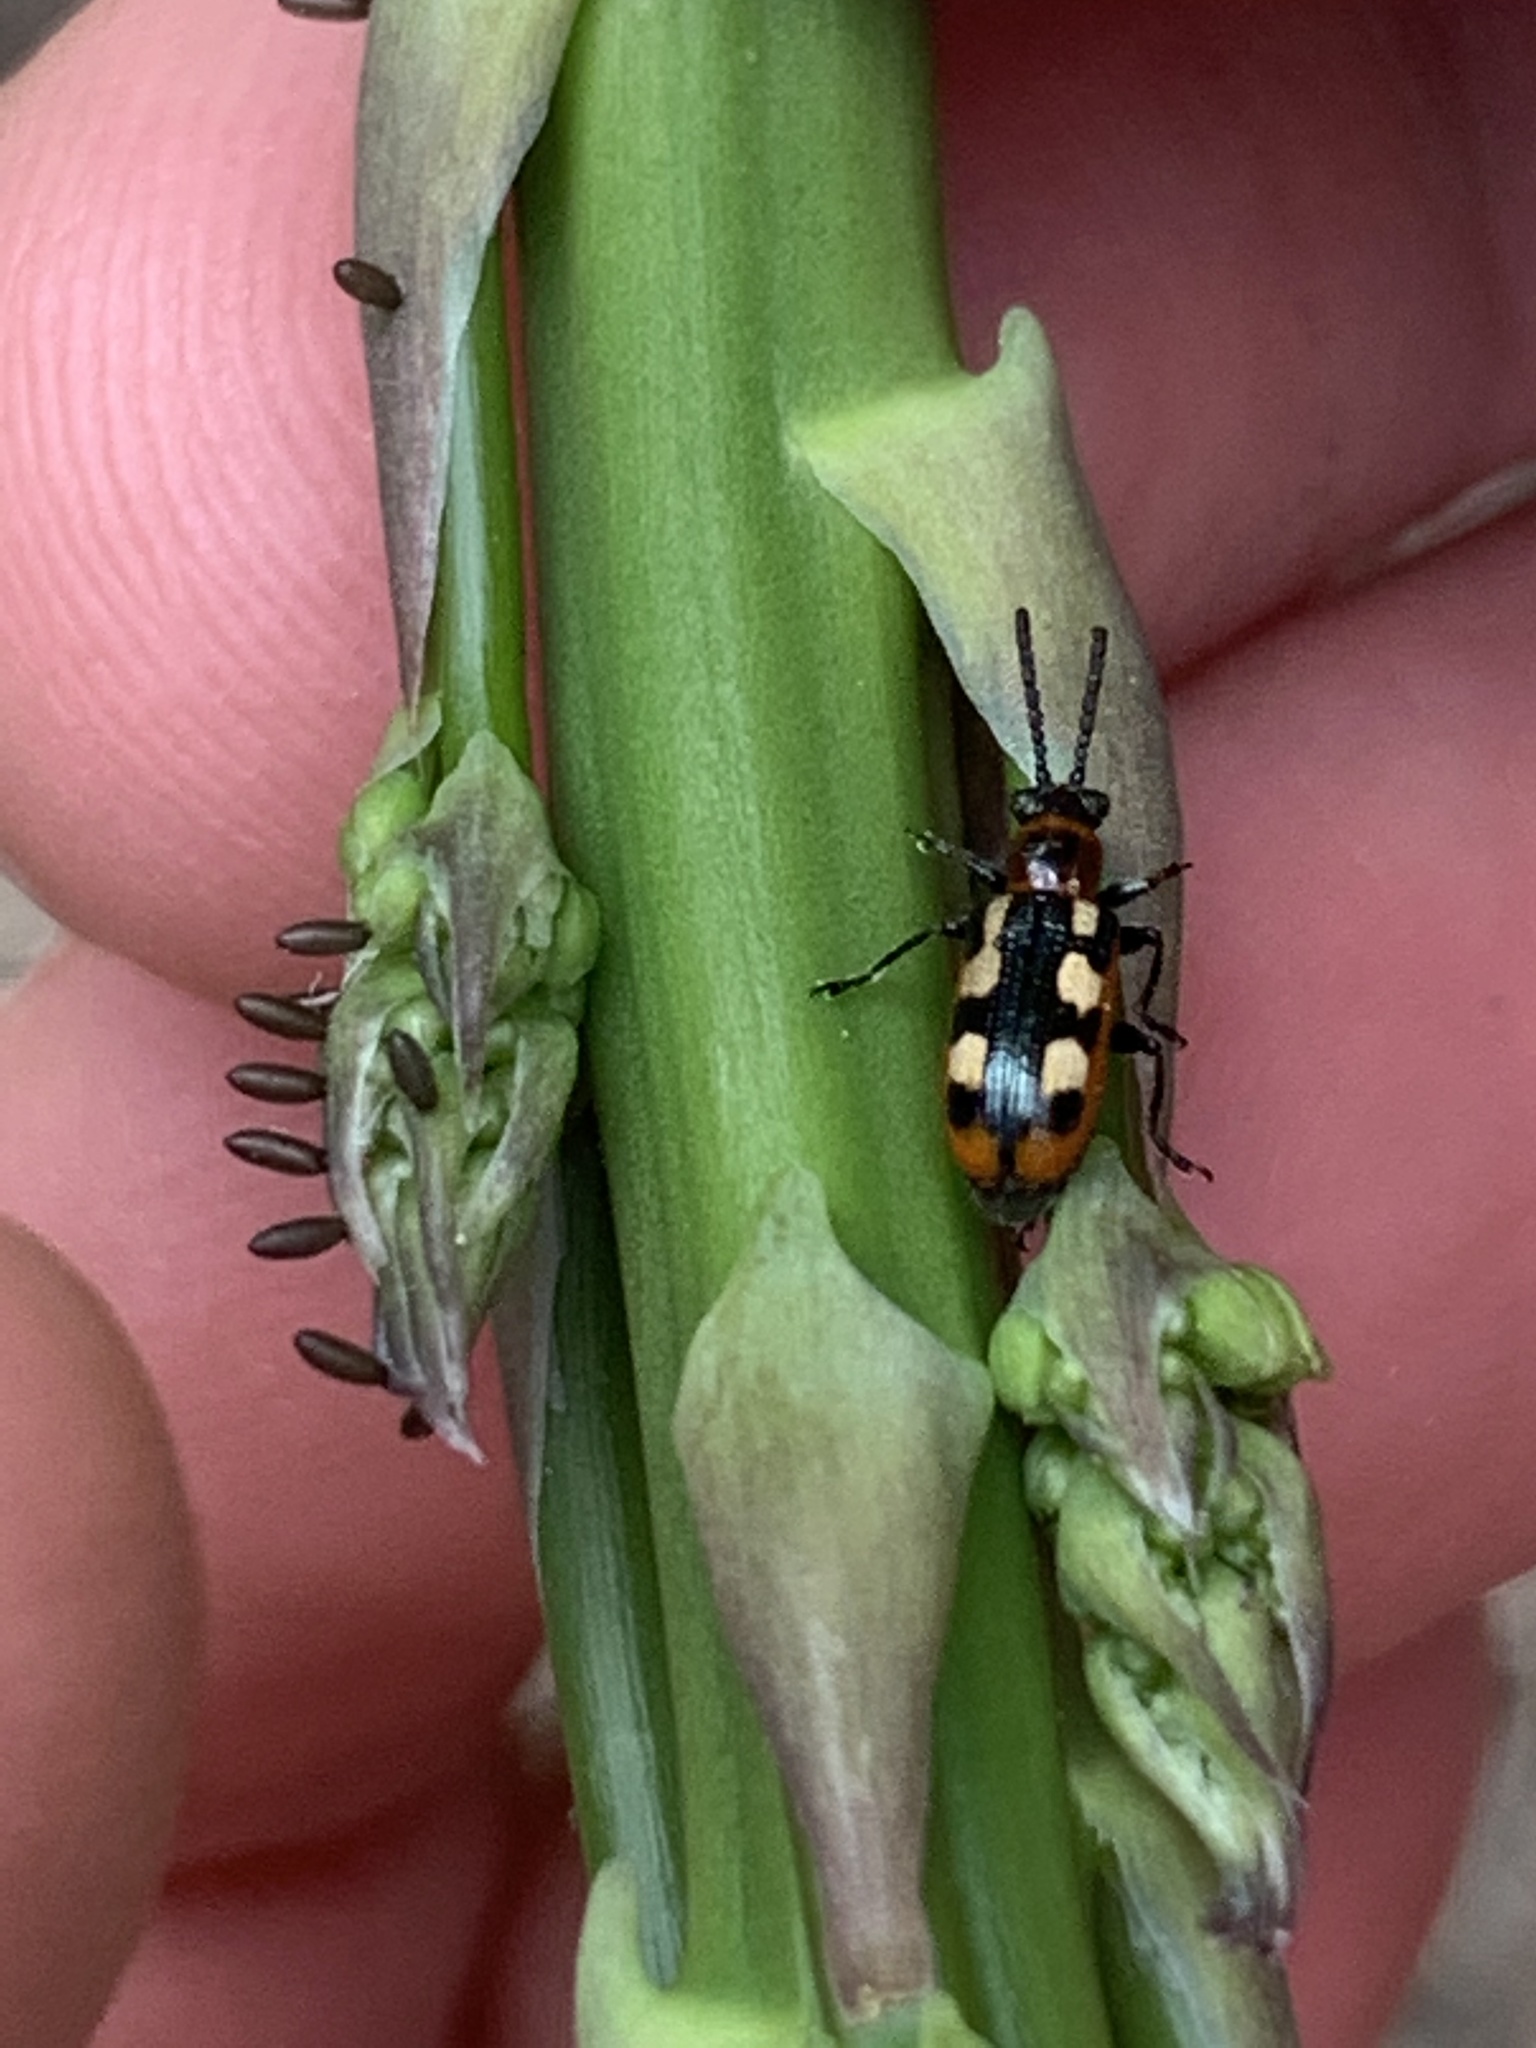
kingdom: Animalia
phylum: Arthropoda
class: Insecta
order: Coleoptera
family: Chrysomelidae
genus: Crioceris
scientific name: Crioceris asparagi
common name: Asparagus beetle
